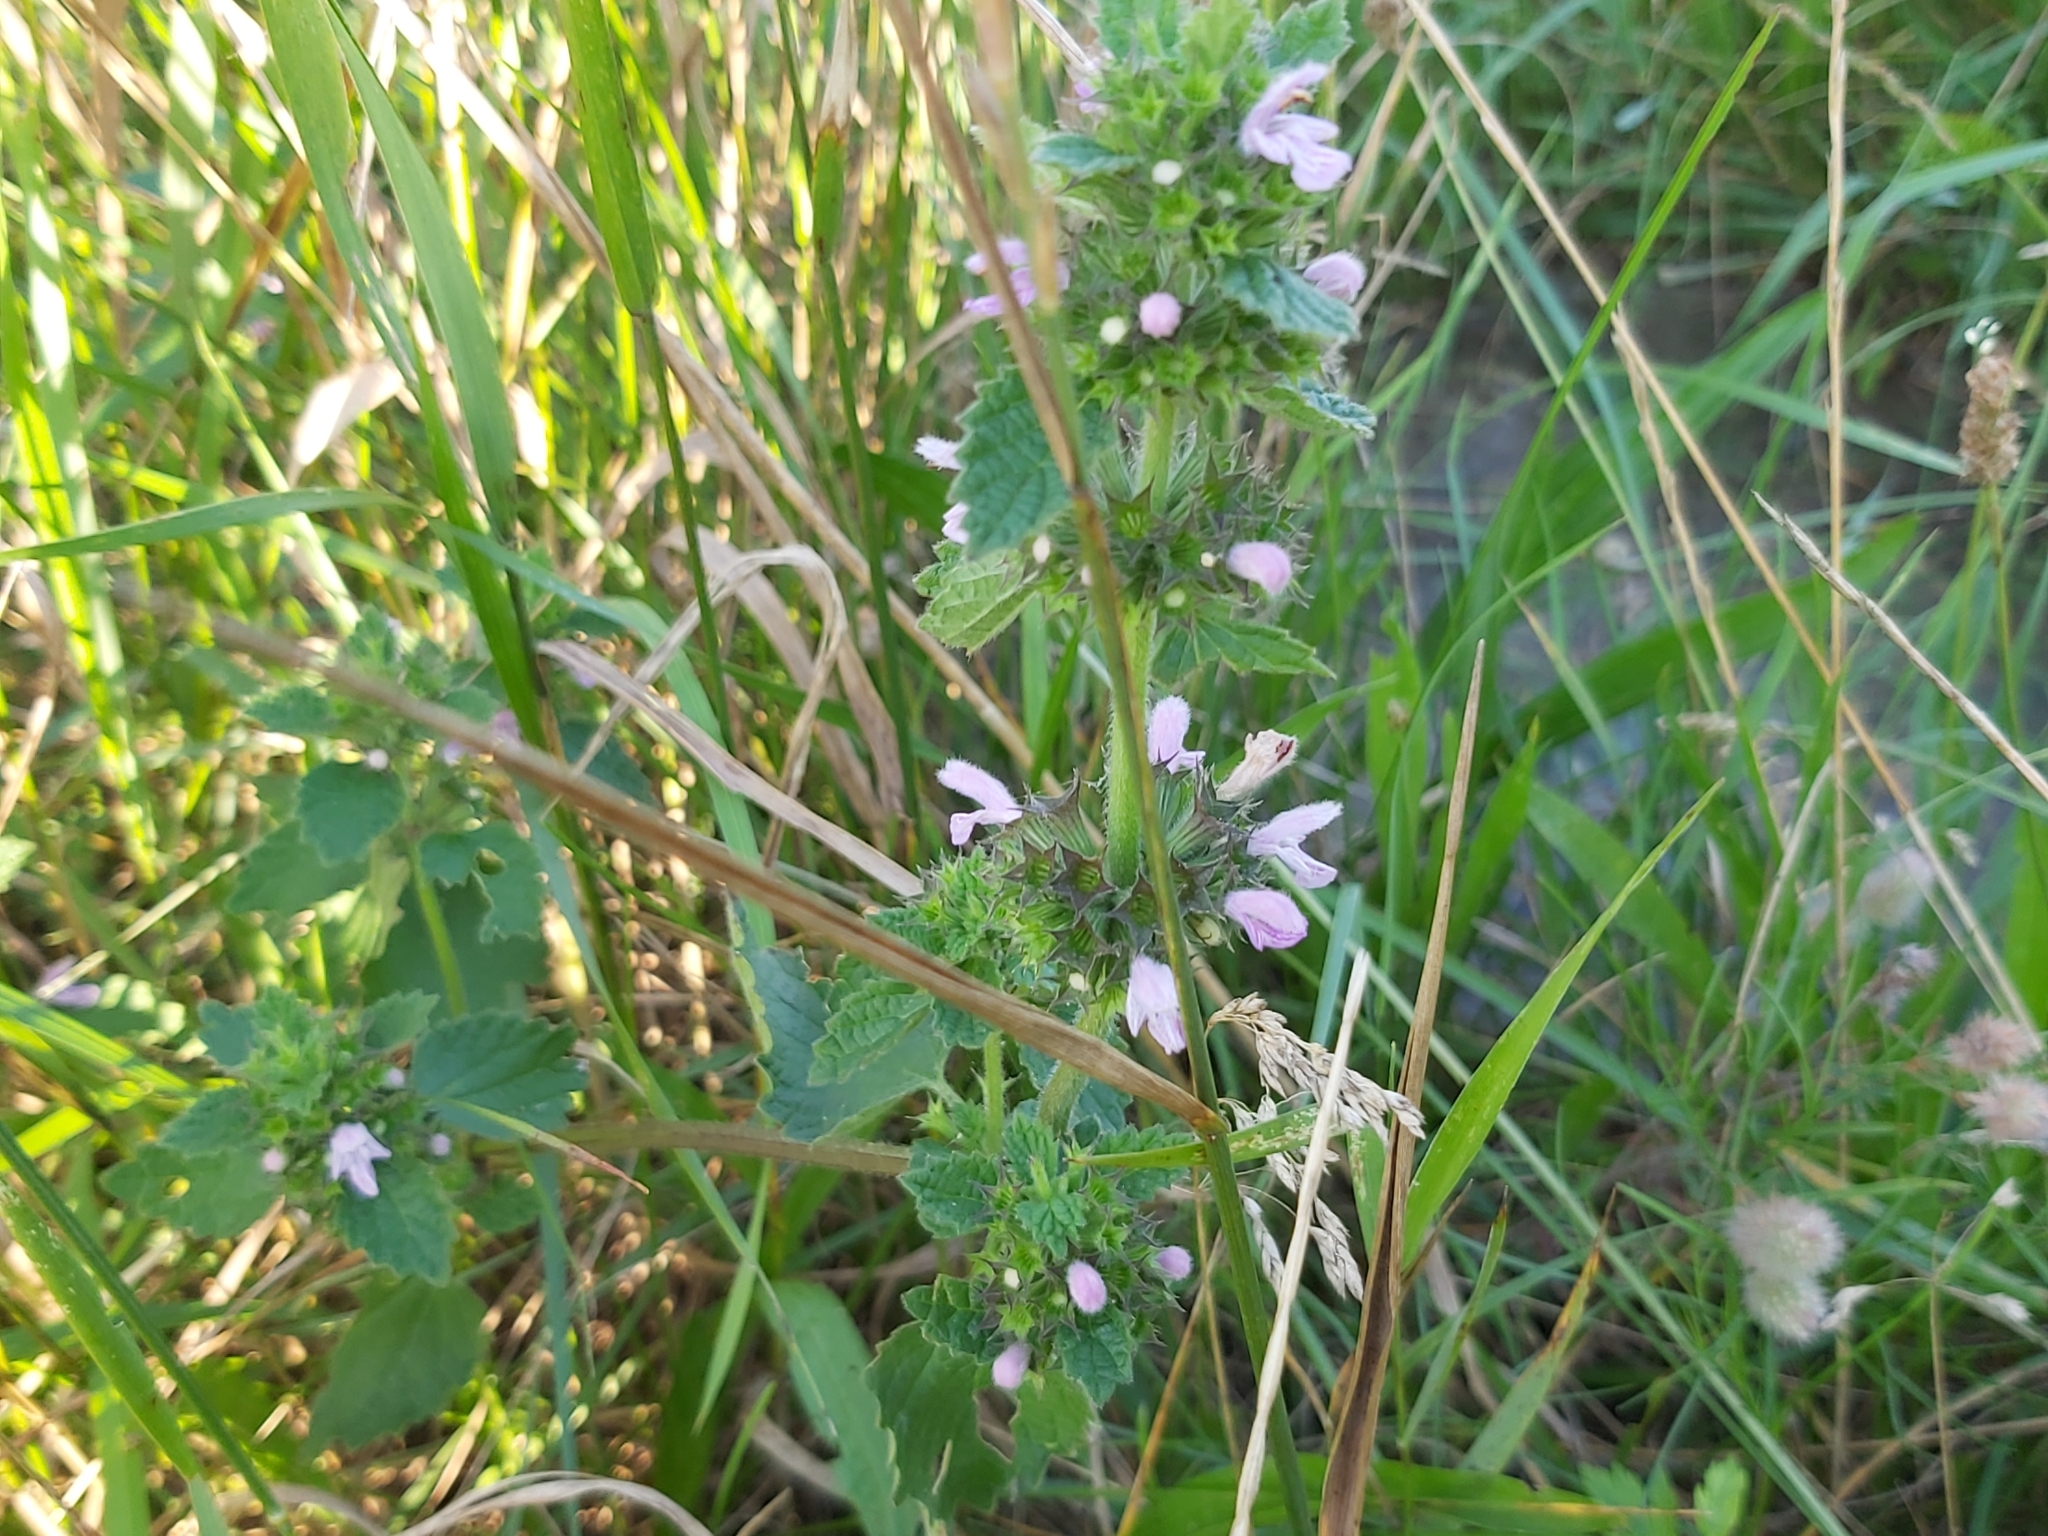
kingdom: Plantae
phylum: Tracheophyta
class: Magnoliopsida
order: Lamiales
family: Lamiaceae
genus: Ballota
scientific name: Ballota nigra
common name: Black horehound
